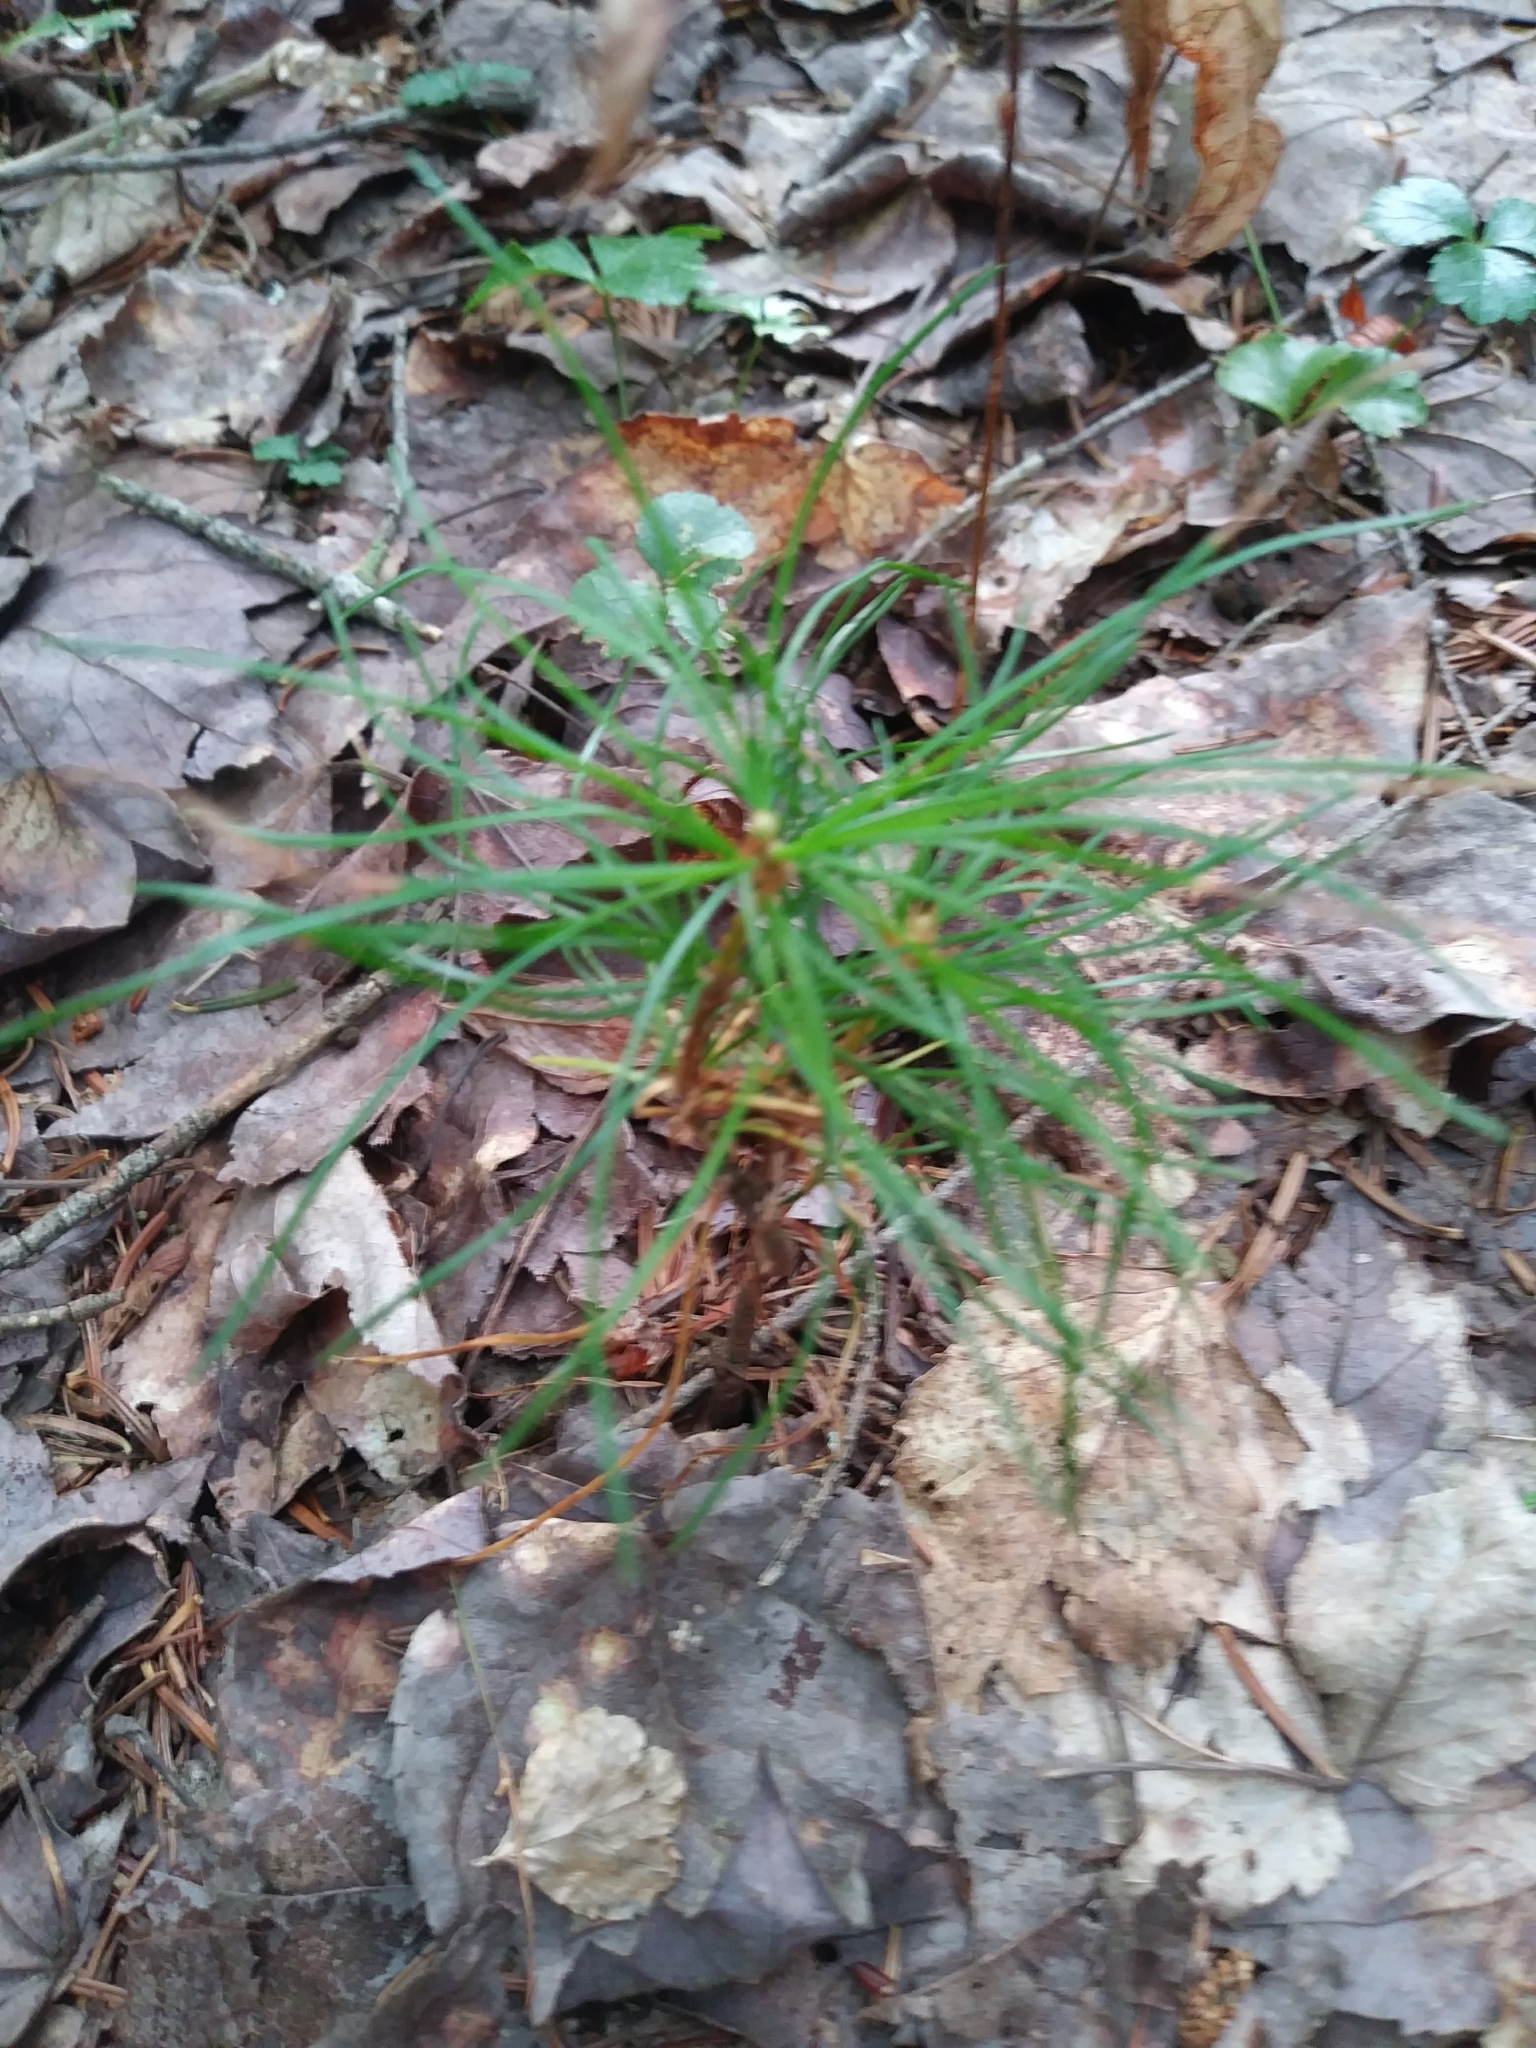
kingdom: Plantae
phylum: Tracheophyta
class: Pinopsida
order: Pinales
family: Pinaceae
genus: Pinus
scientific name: Pinus strobus
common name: Weymouth pine
